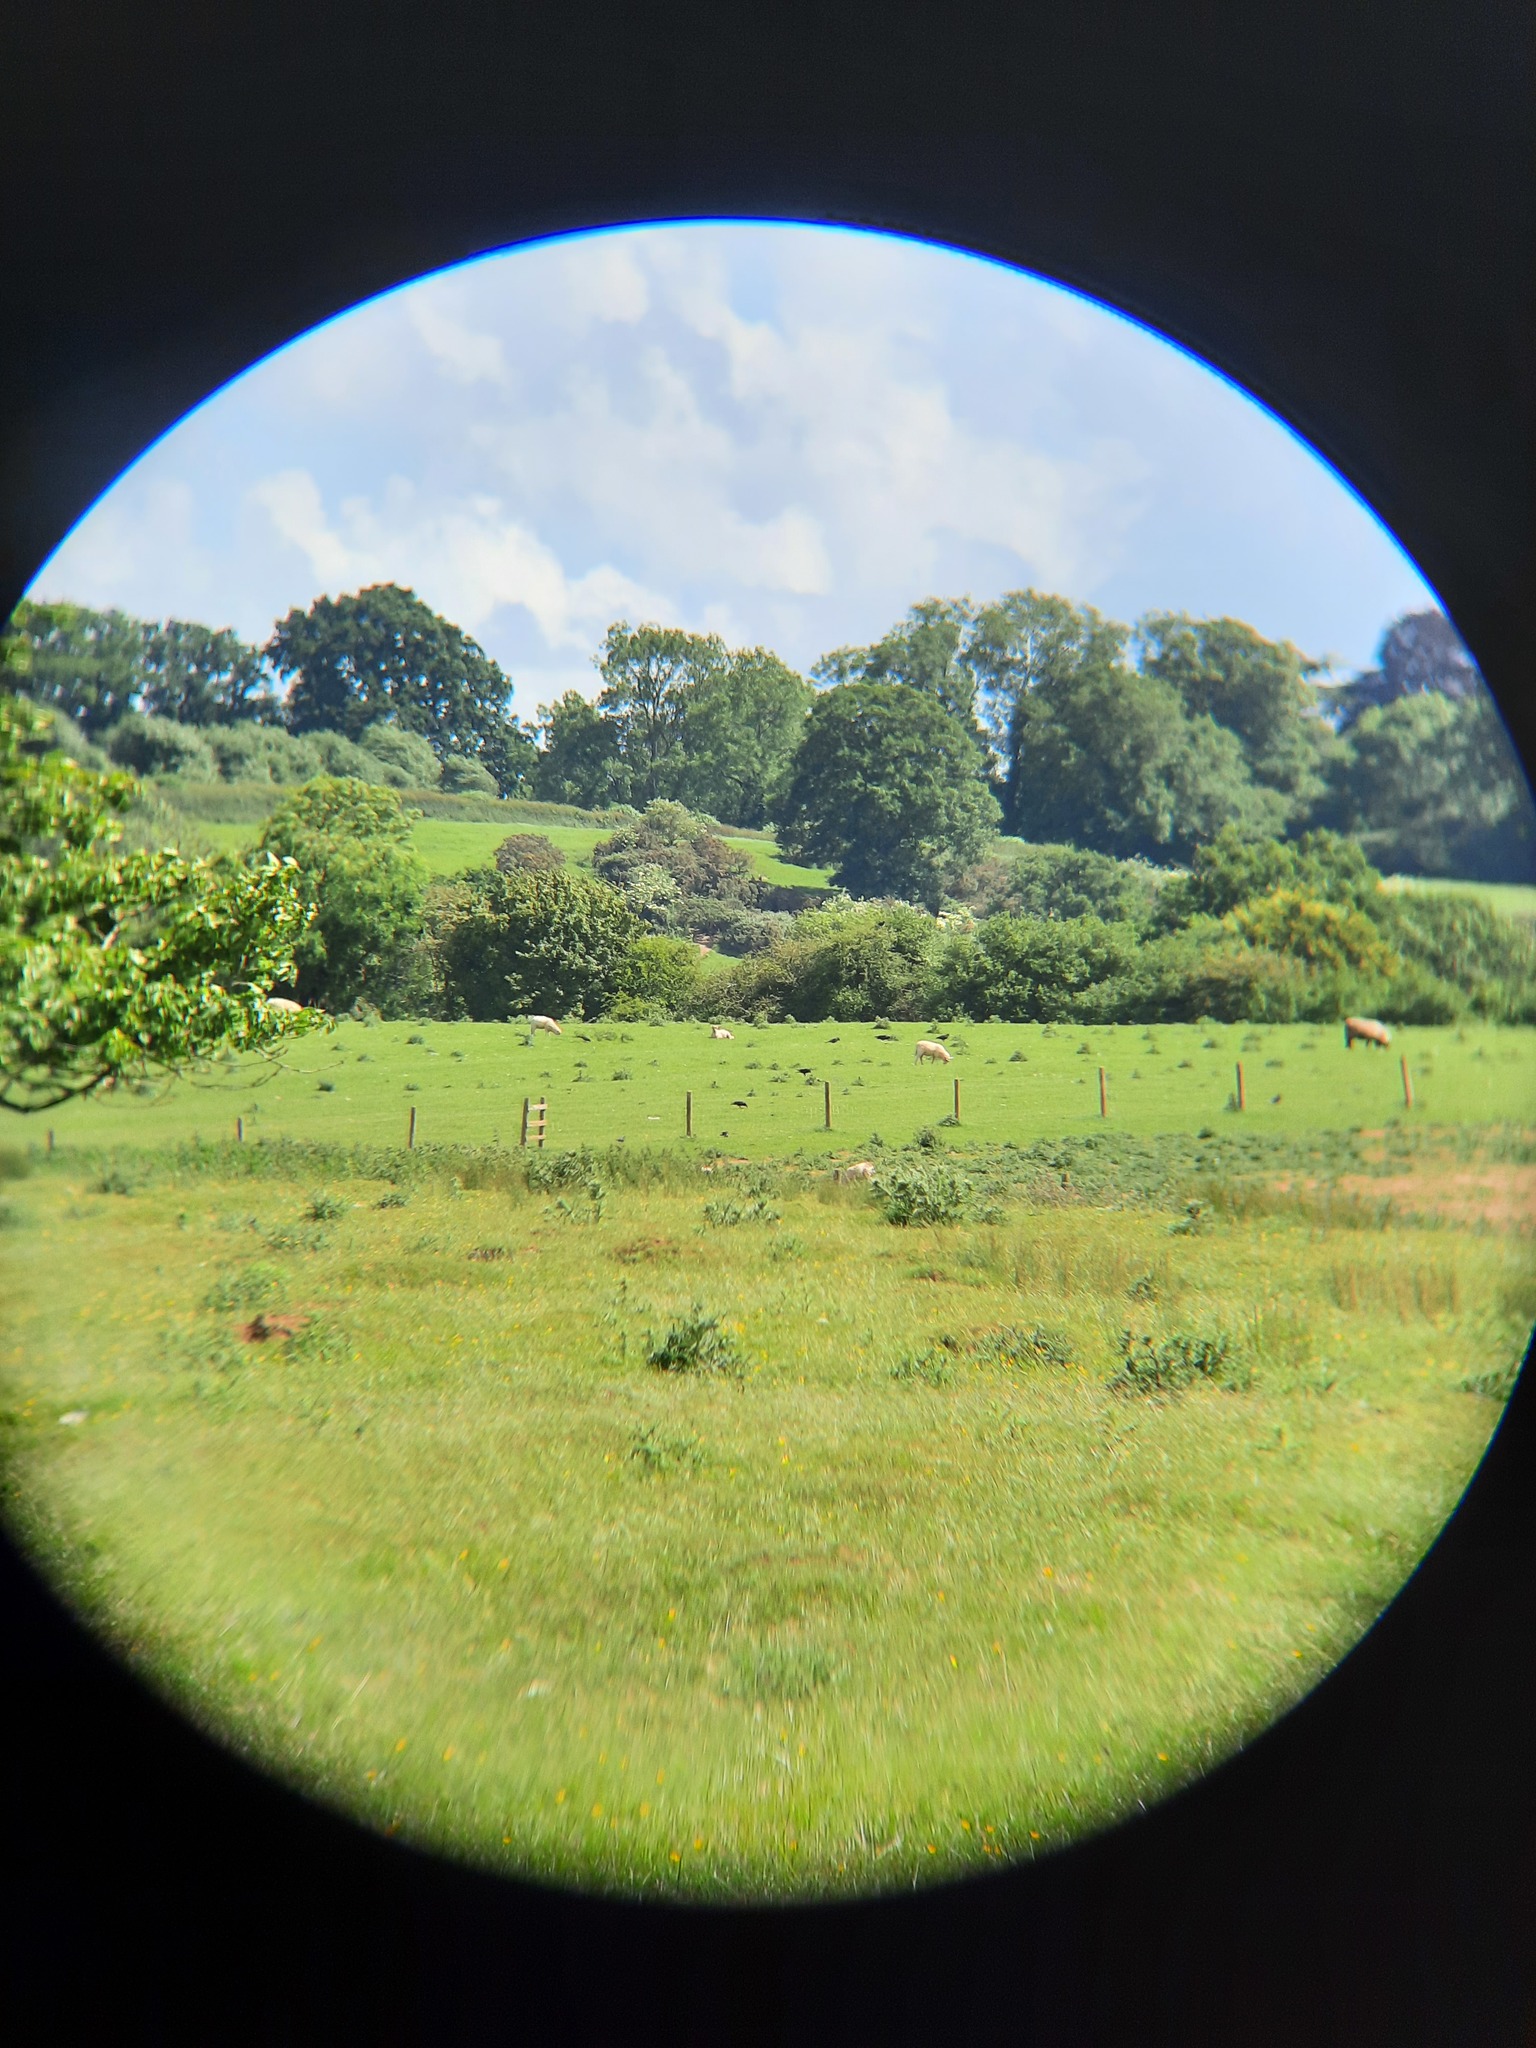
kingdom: Animalia
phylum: Chordata
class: Aves
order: Passeriformes
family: Corvidae
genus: Coloeus
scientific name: Coloeus monedula
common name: Western jackdaw
